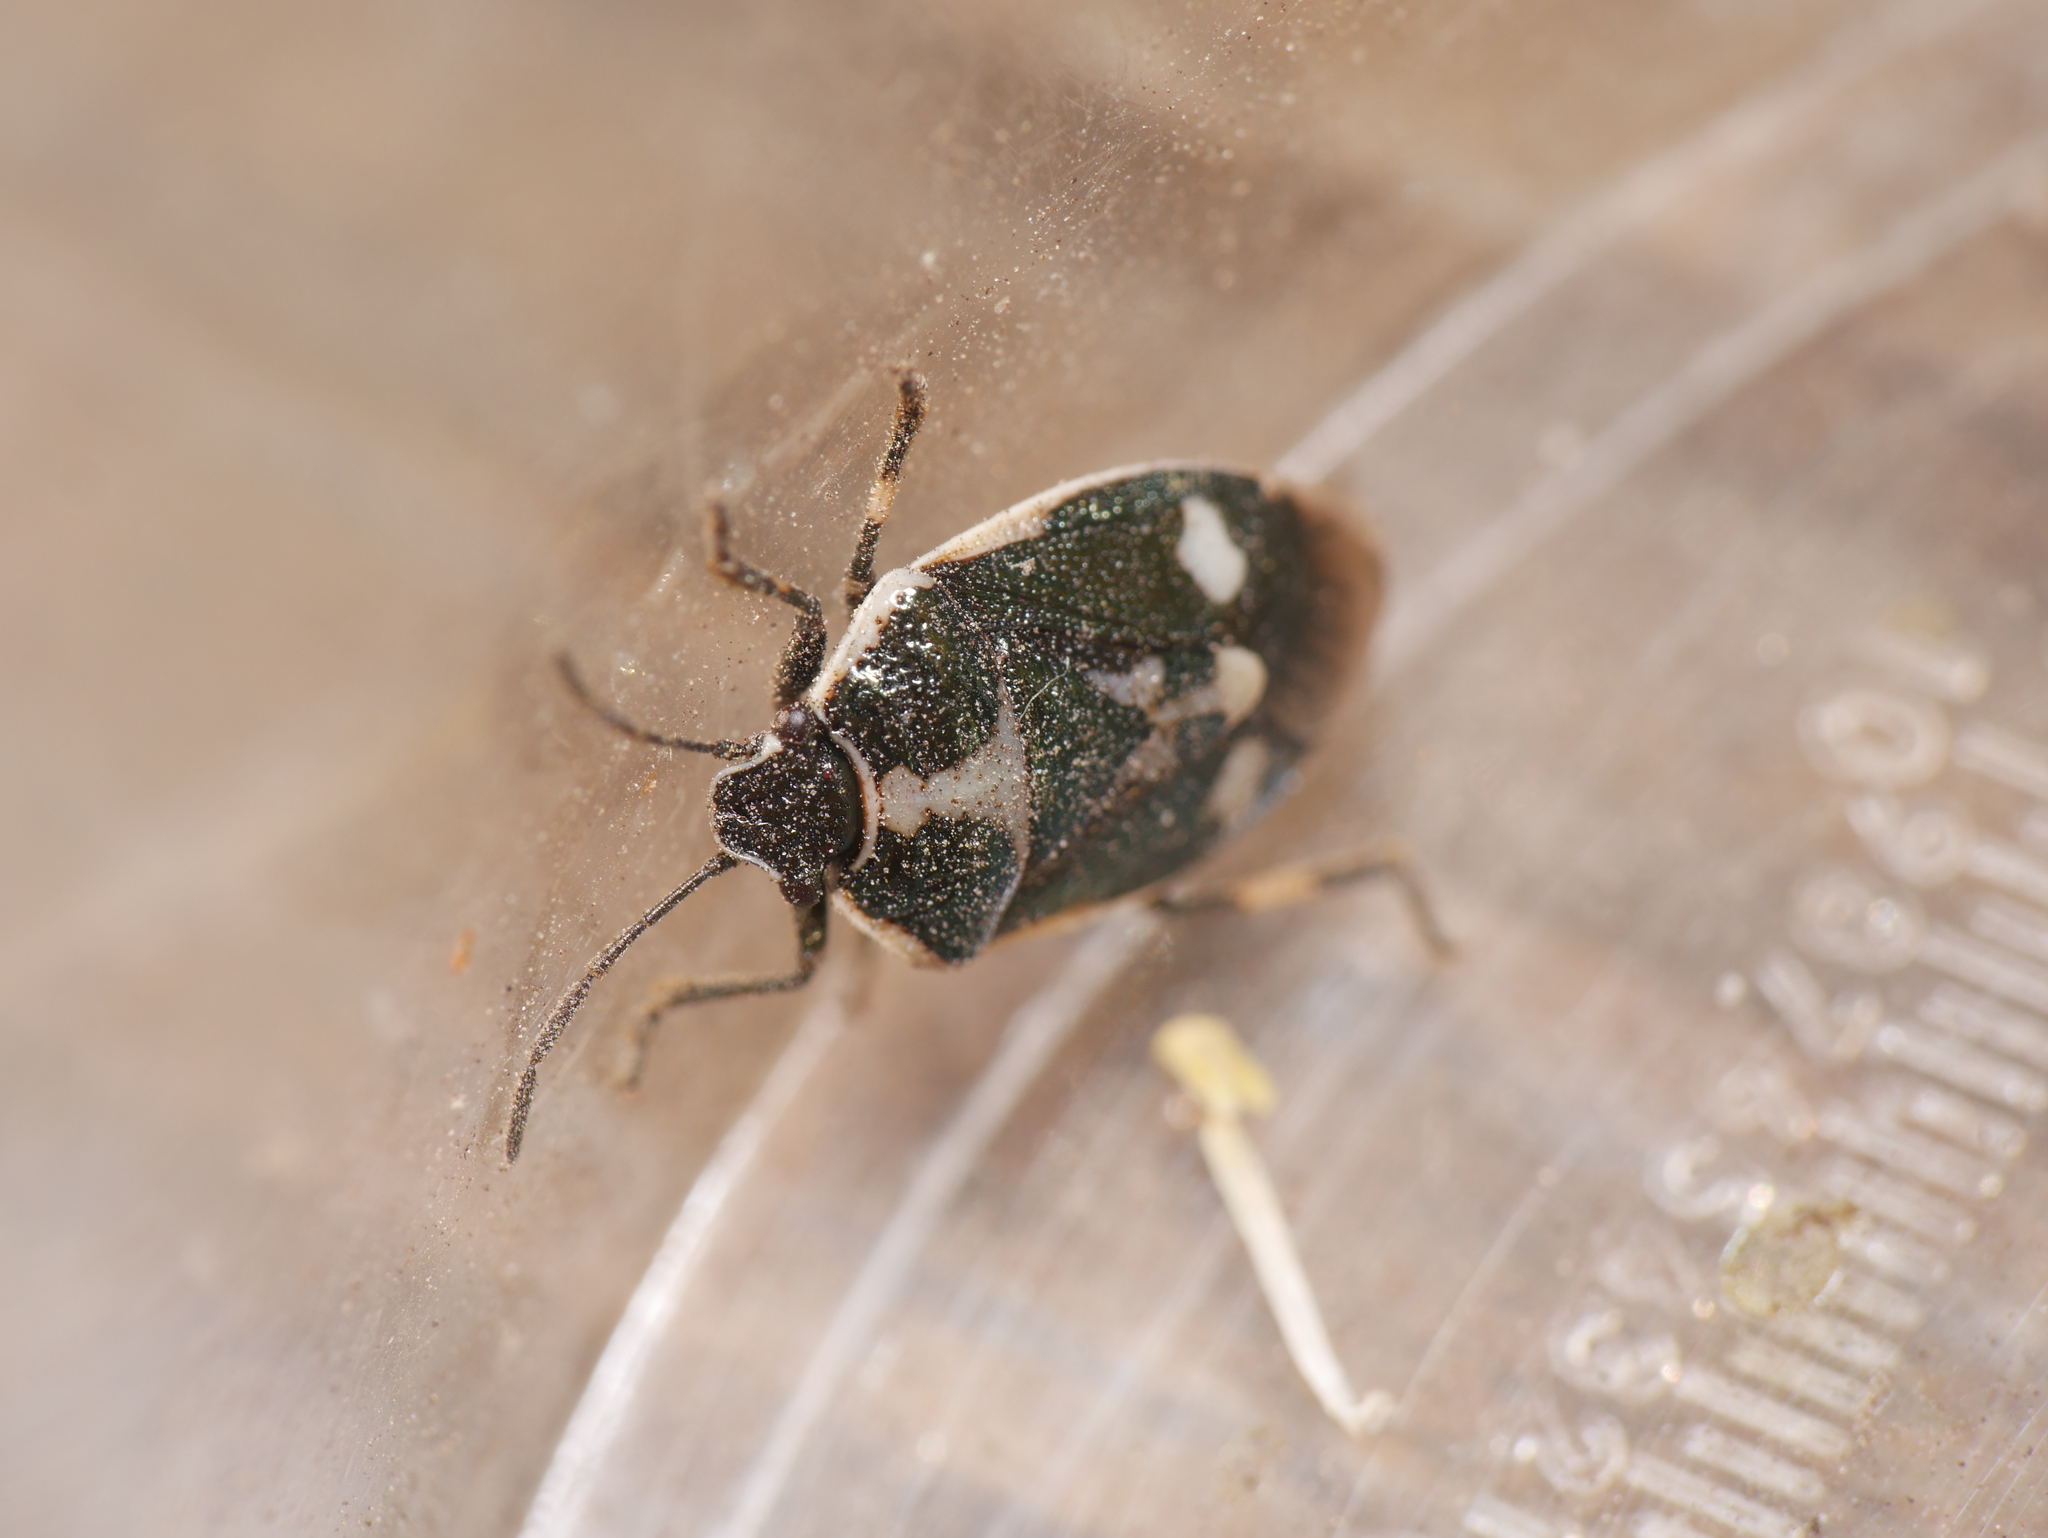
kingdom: Animalia
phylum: Arthropoda
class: Insecta
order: Hemiptera
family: Pentatomidae
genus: Eurydema
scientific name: Eurydema oleracea
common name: Cabbage bug
